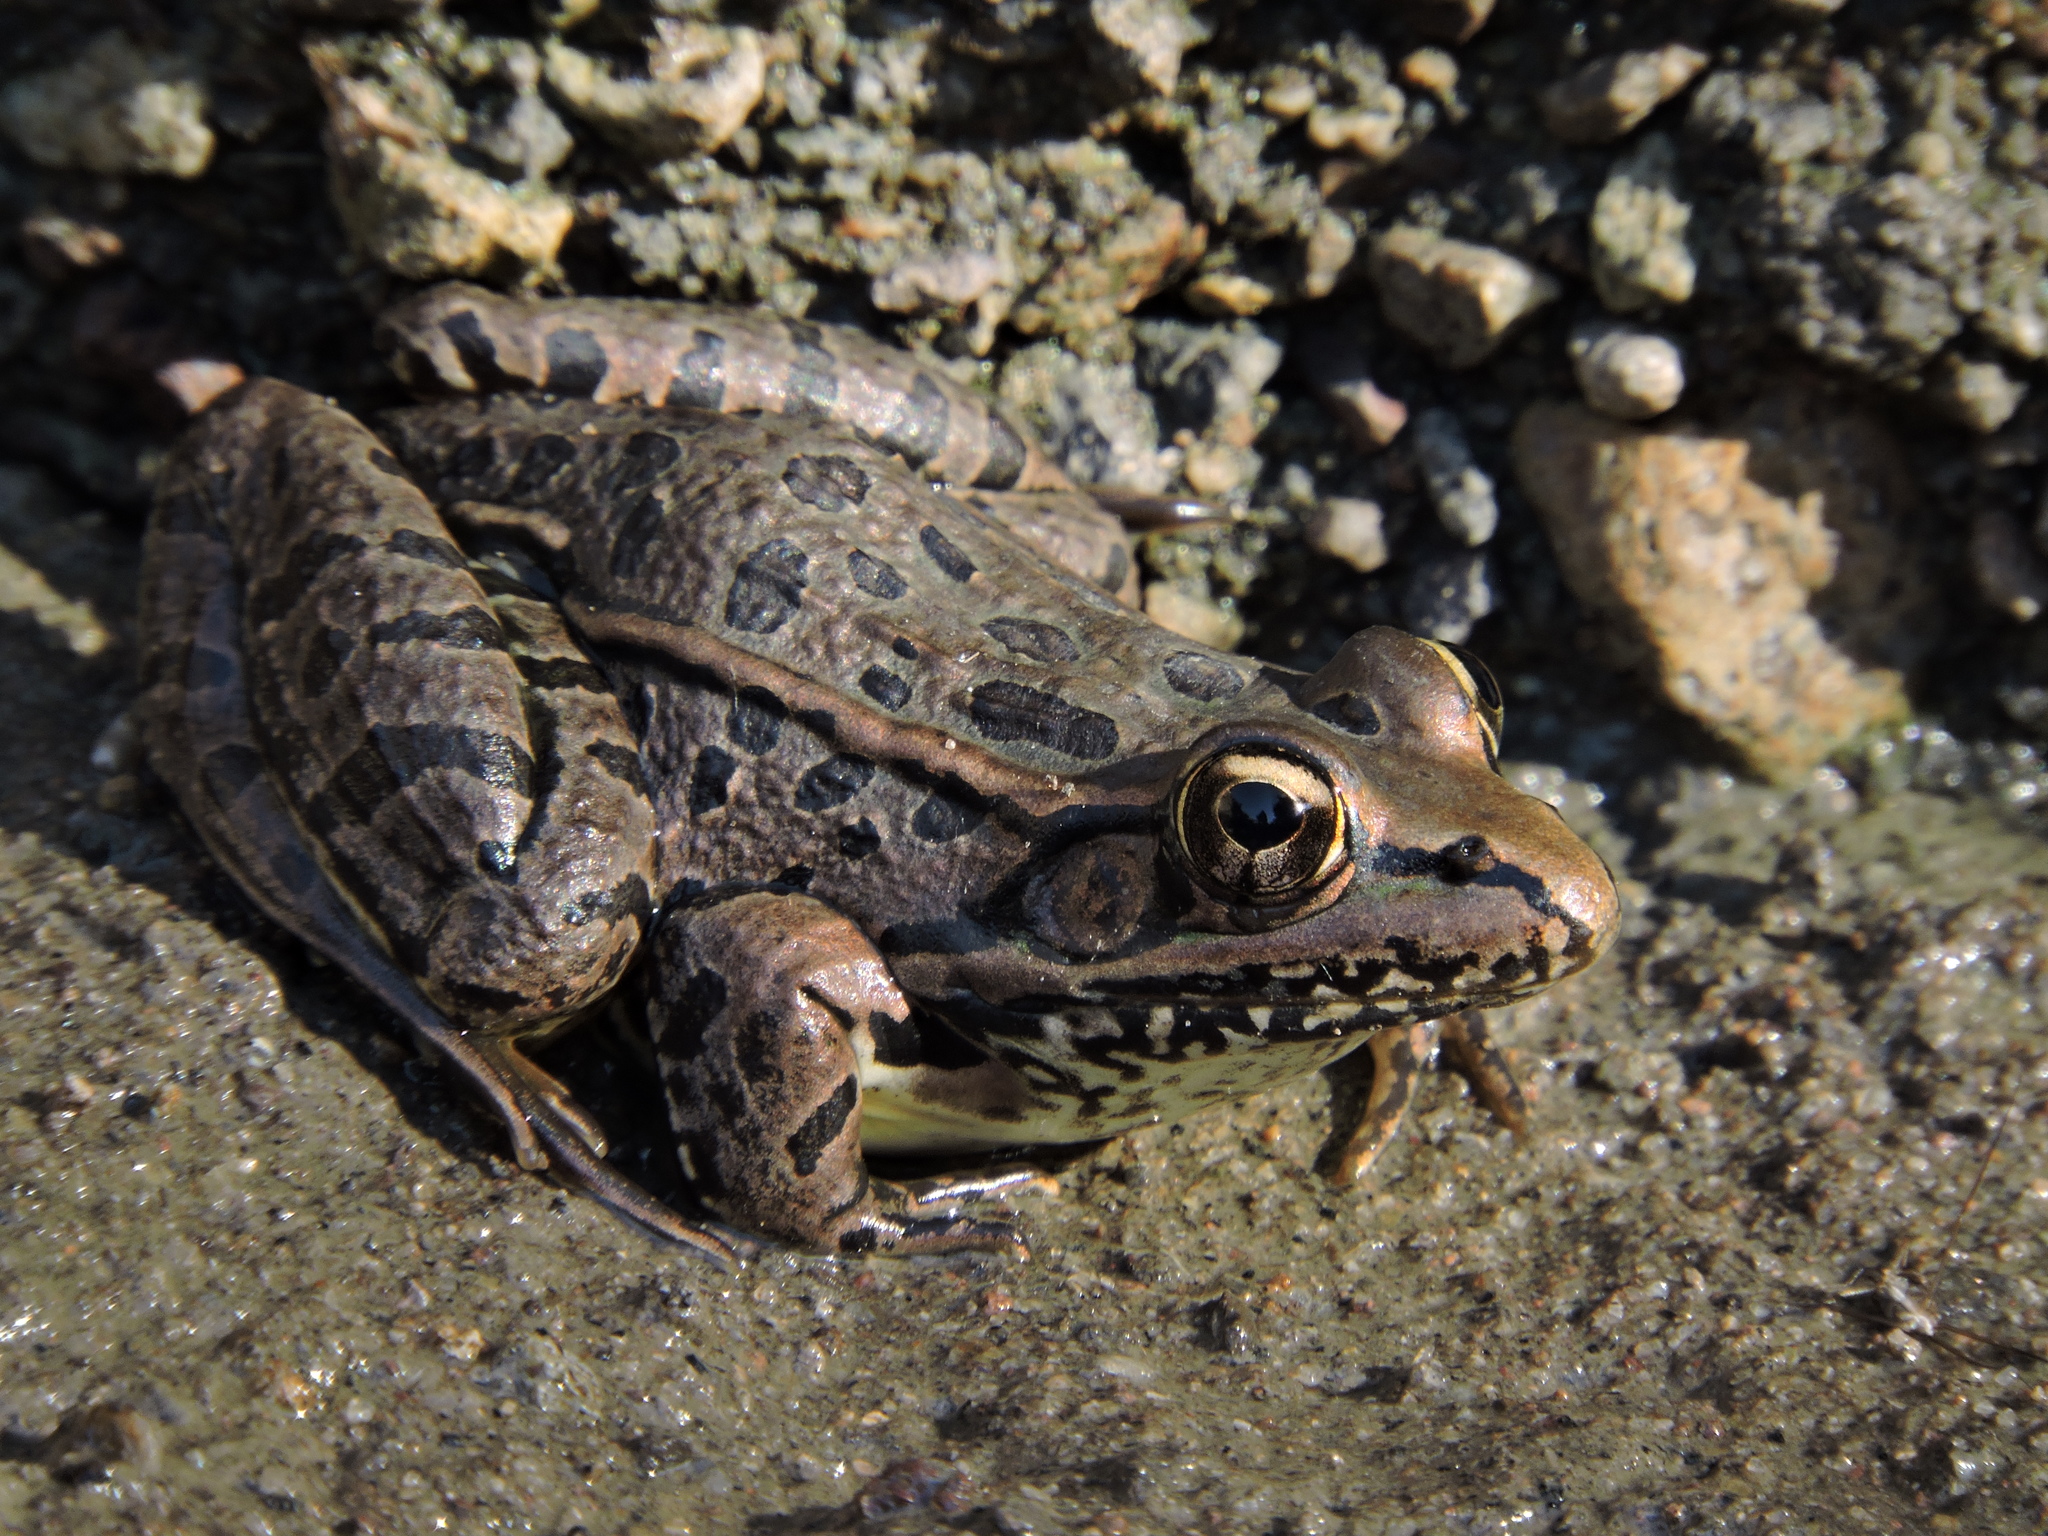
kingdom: Animalia
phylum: Chordata
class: Amphibia
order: Anura
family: Ranidae
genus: Lithobates
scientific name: Lithobates spectabilis
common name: Showy leopard frog
